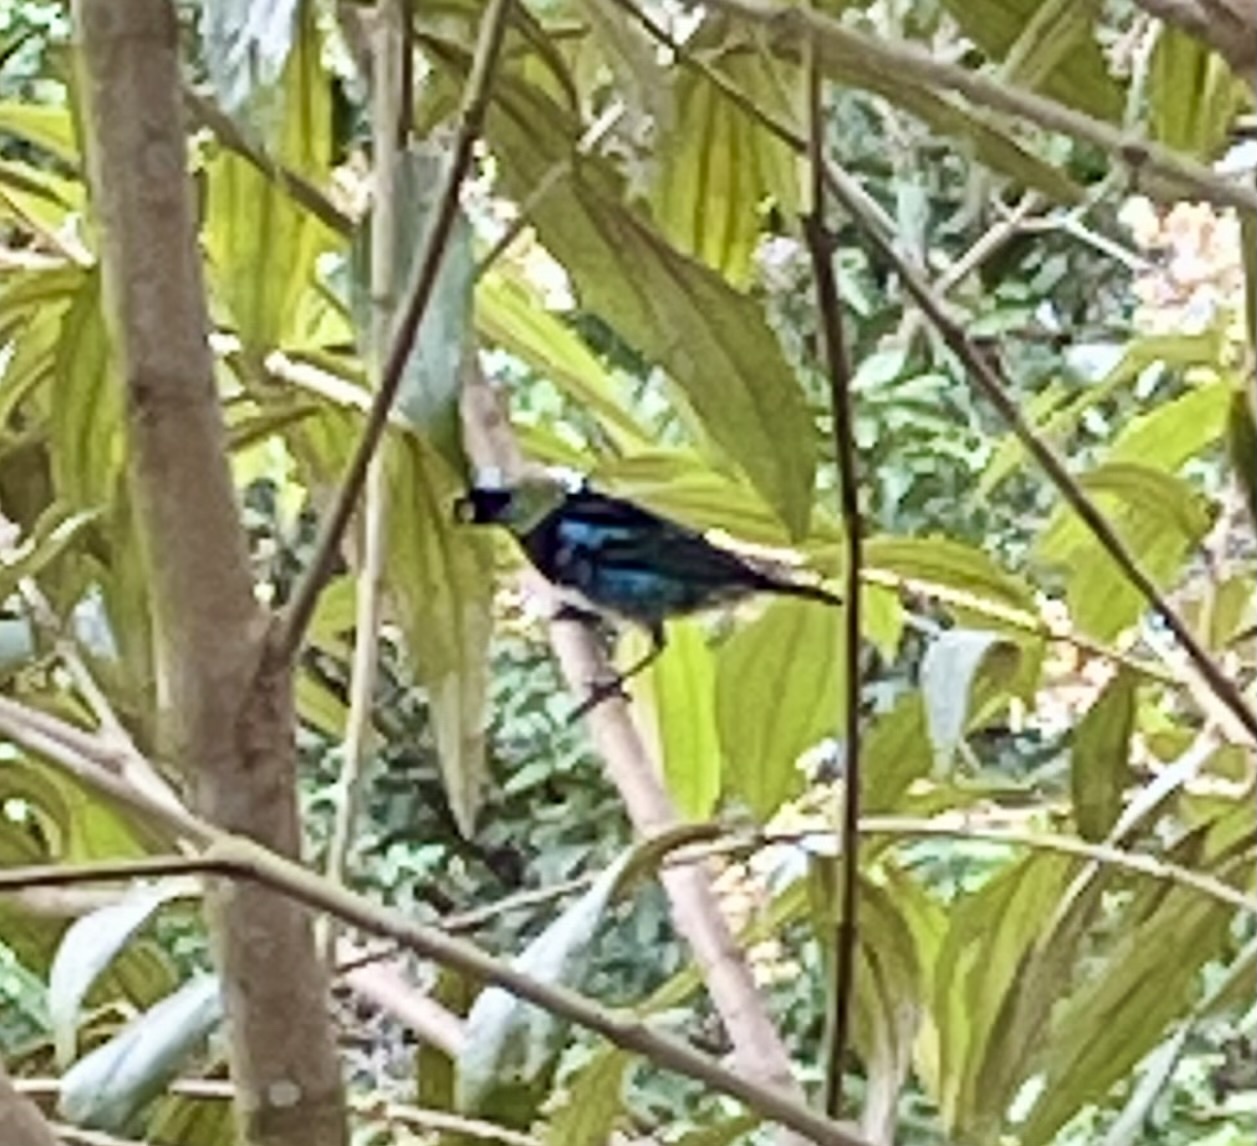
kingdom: Animalia
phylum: Chordata
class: Aves
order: Passeriformes
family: Thraupidae
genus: Stilpnia
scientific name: Stilpnia larvata
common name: Golden-hooded tanager
